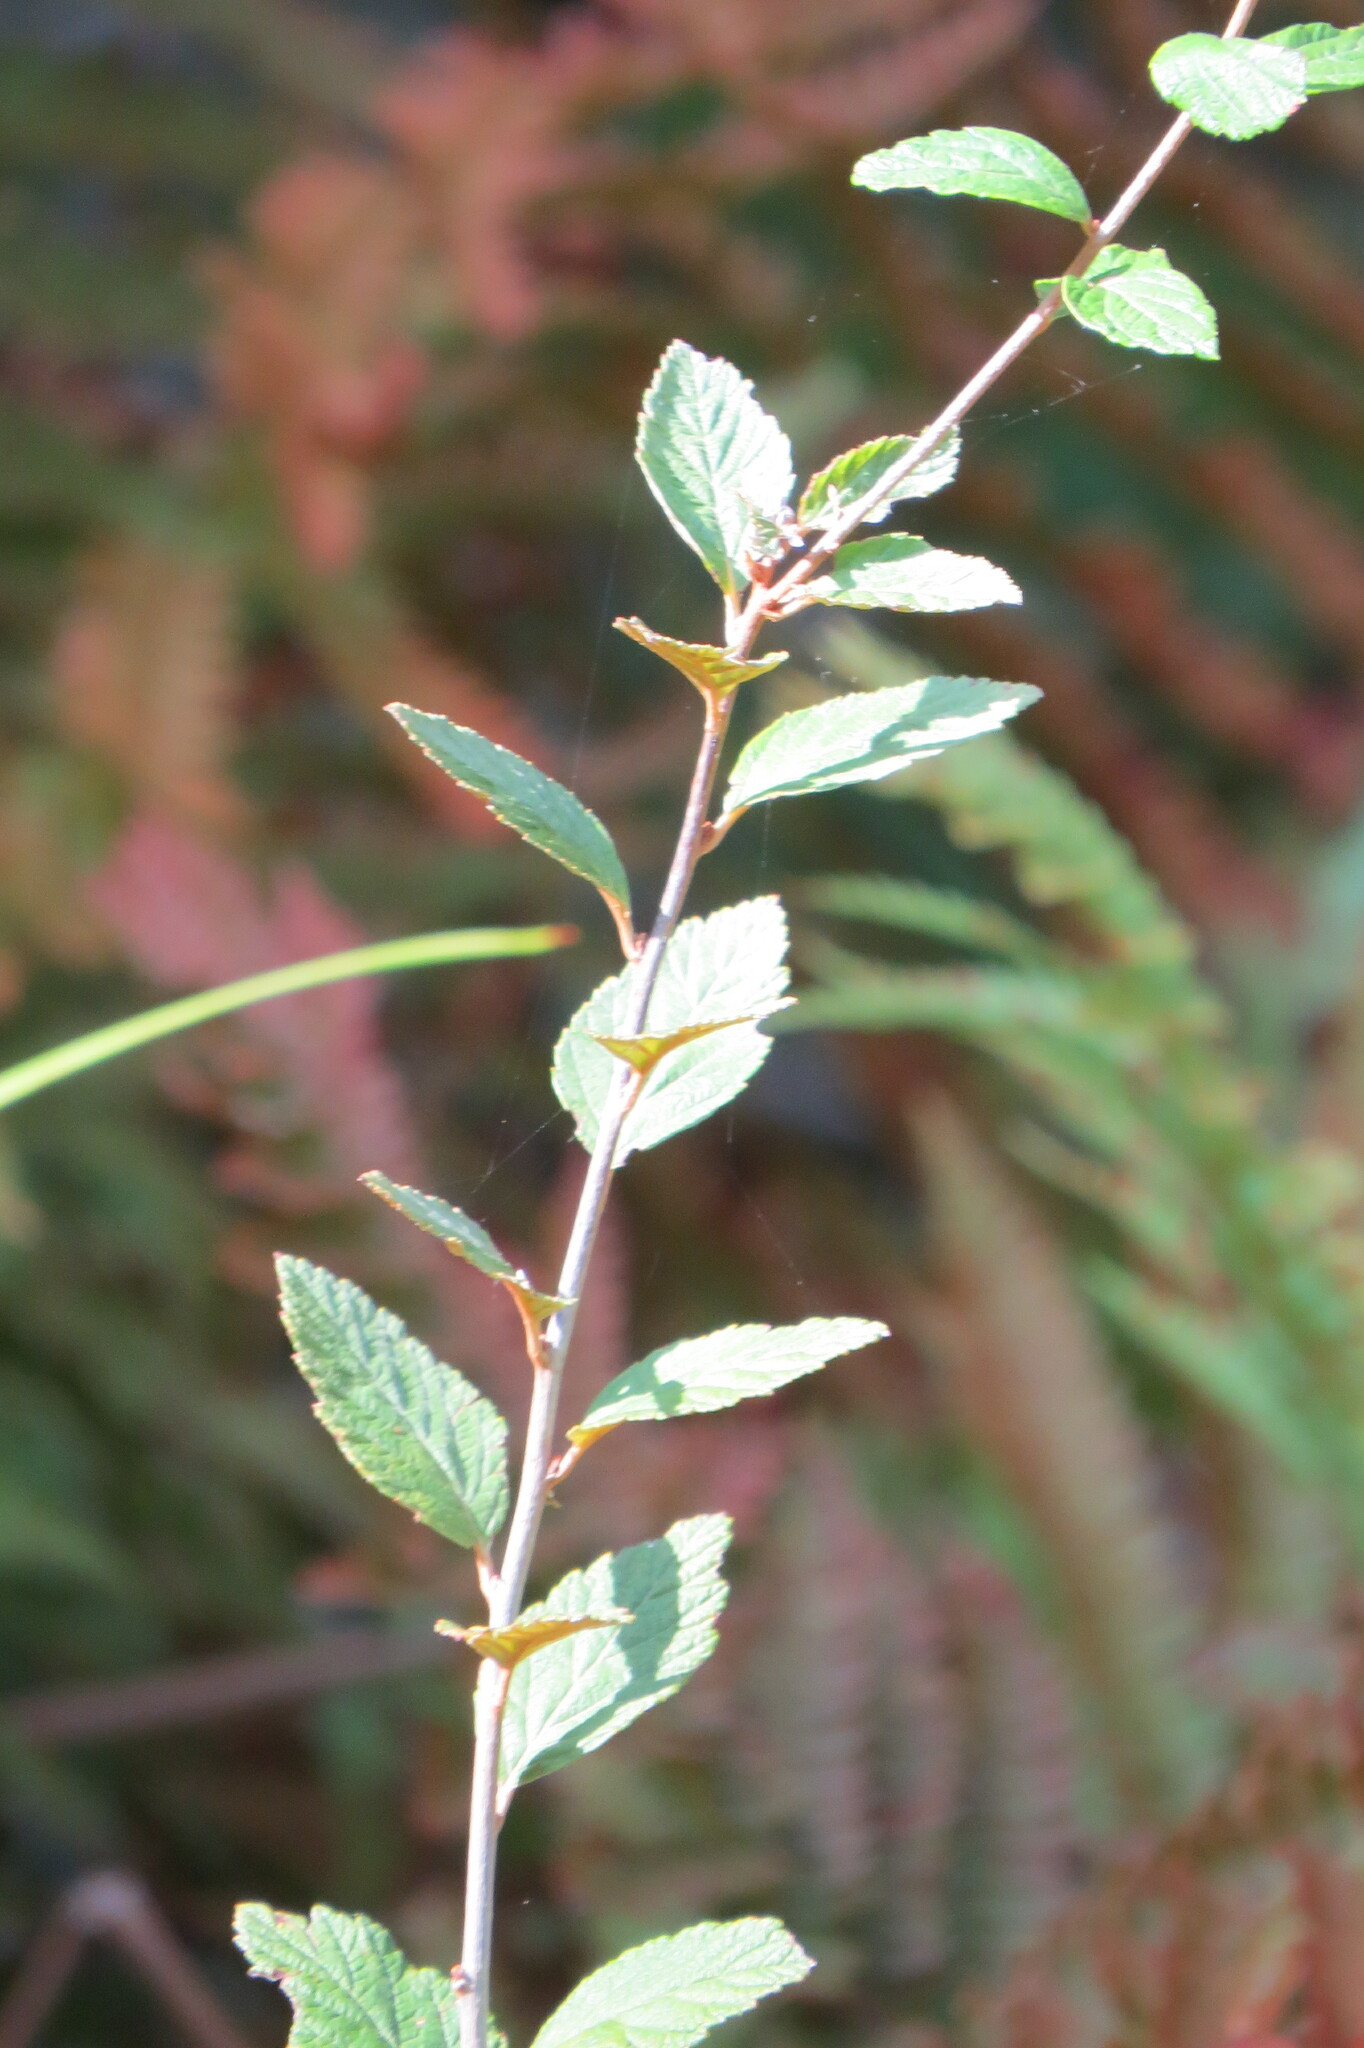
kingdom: Plantae
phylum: Tracheophyta
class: Magnoliopsida
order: Rosales
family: Rosaceae
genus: Spiraea
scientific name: Spiraea tomentosa
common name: Hardhack
